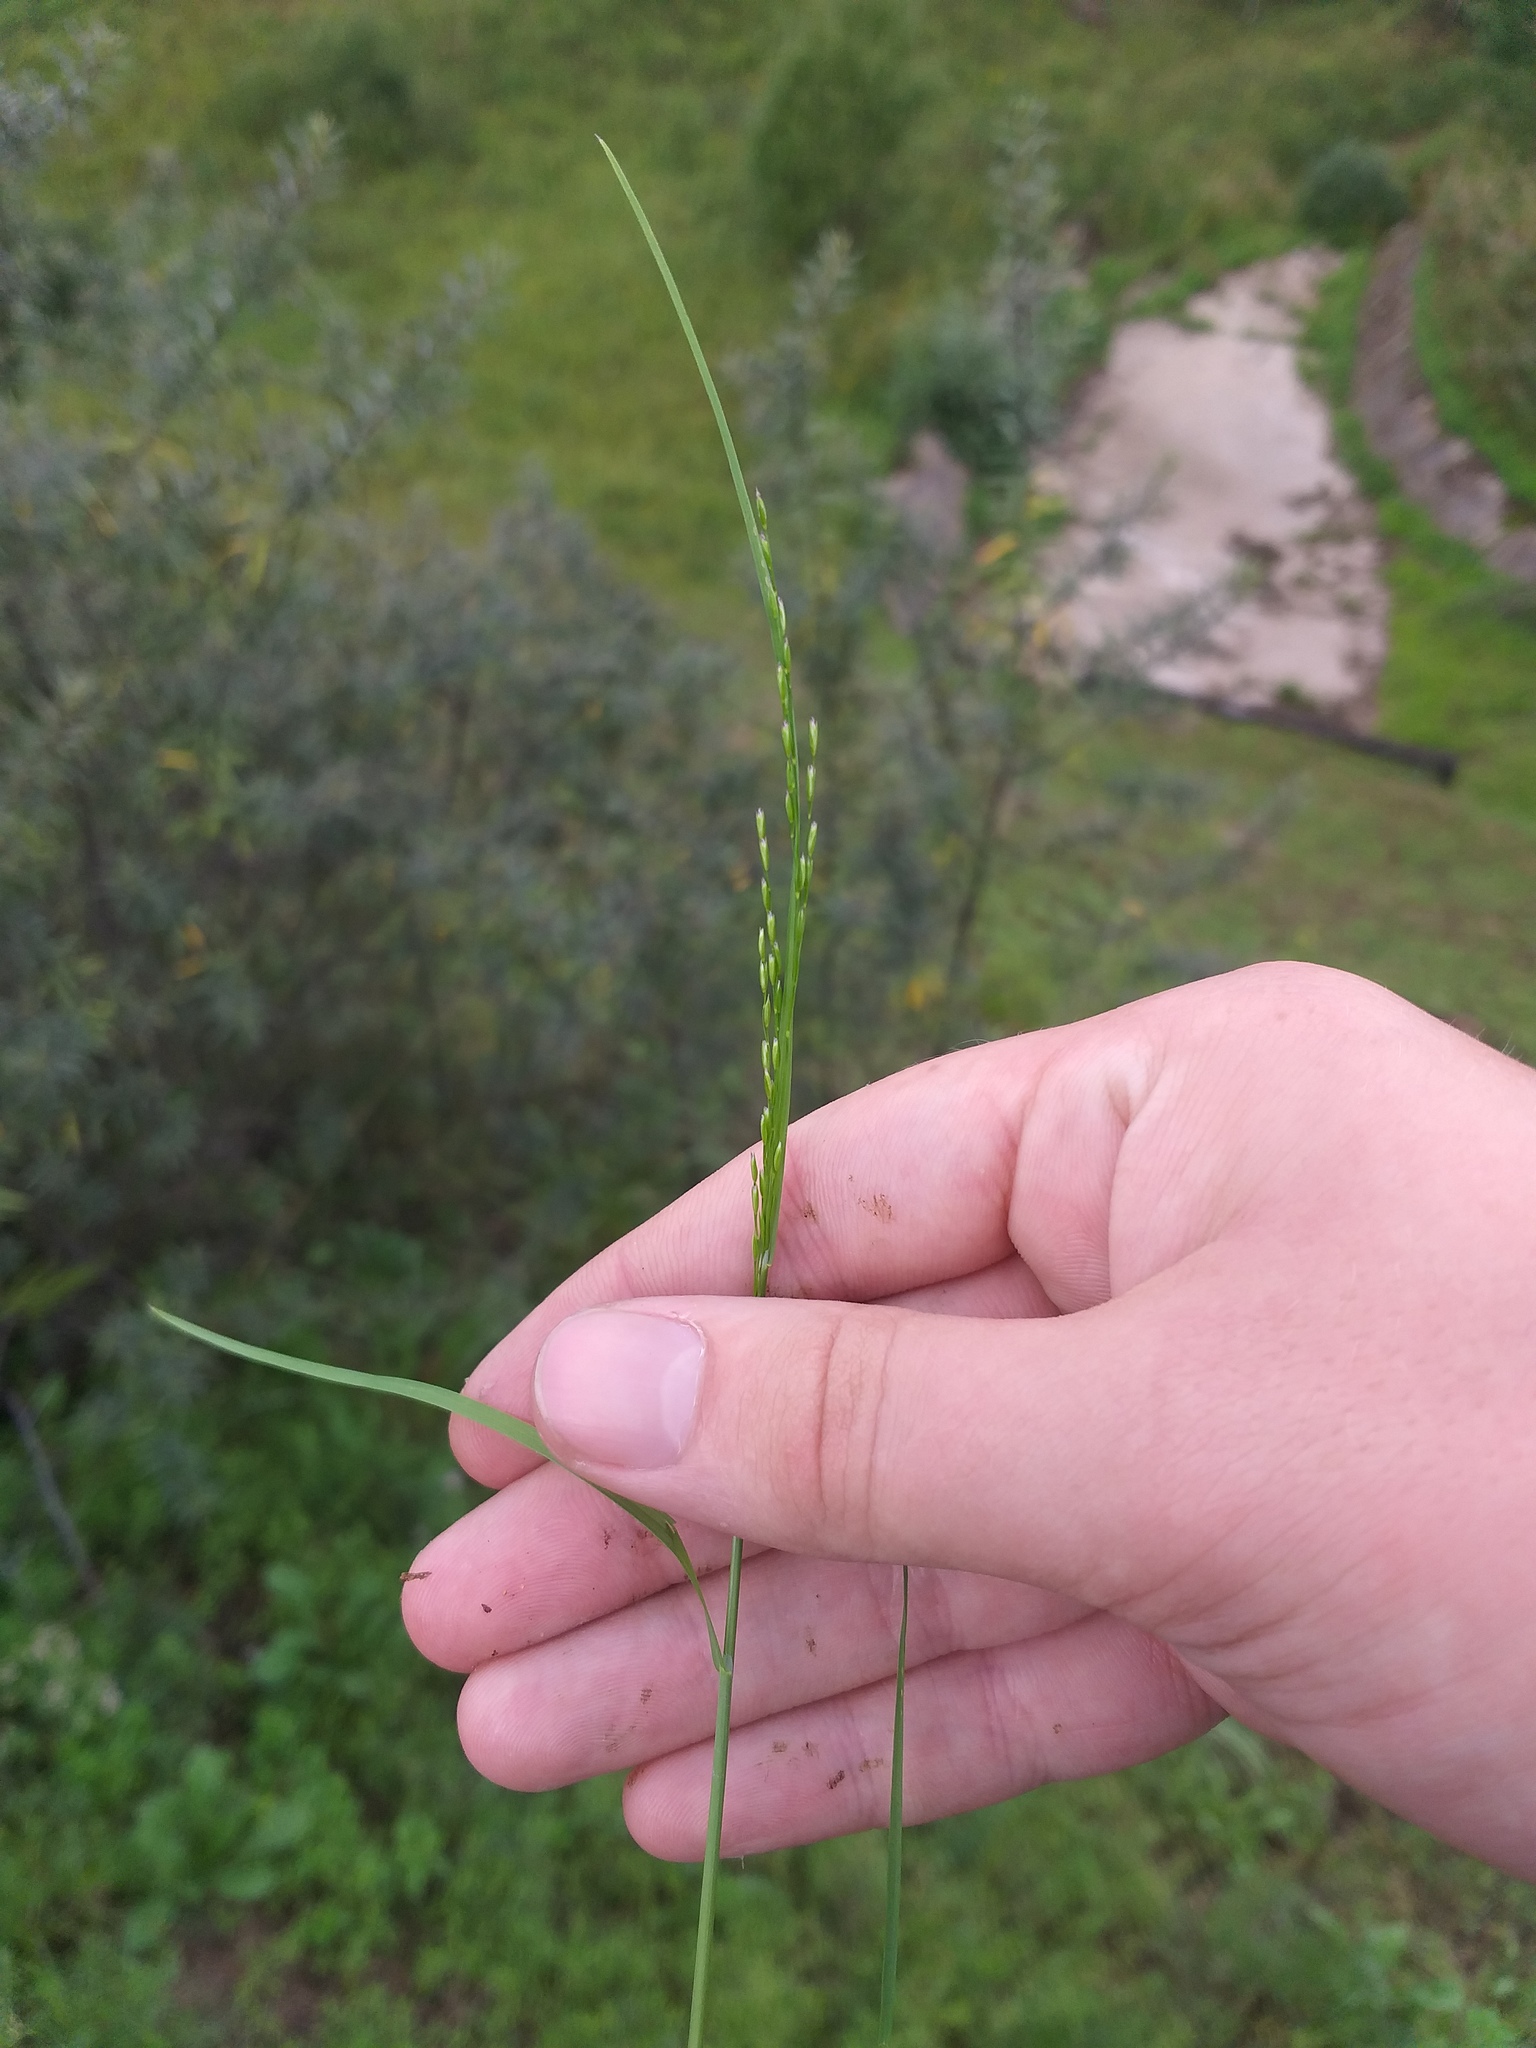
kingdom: Plantae
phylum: Tracheophyta
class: Liliopsida
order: Poales
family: Poaceae
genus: Poa
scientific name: Poa palustris
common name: Swamp meadow-grass
